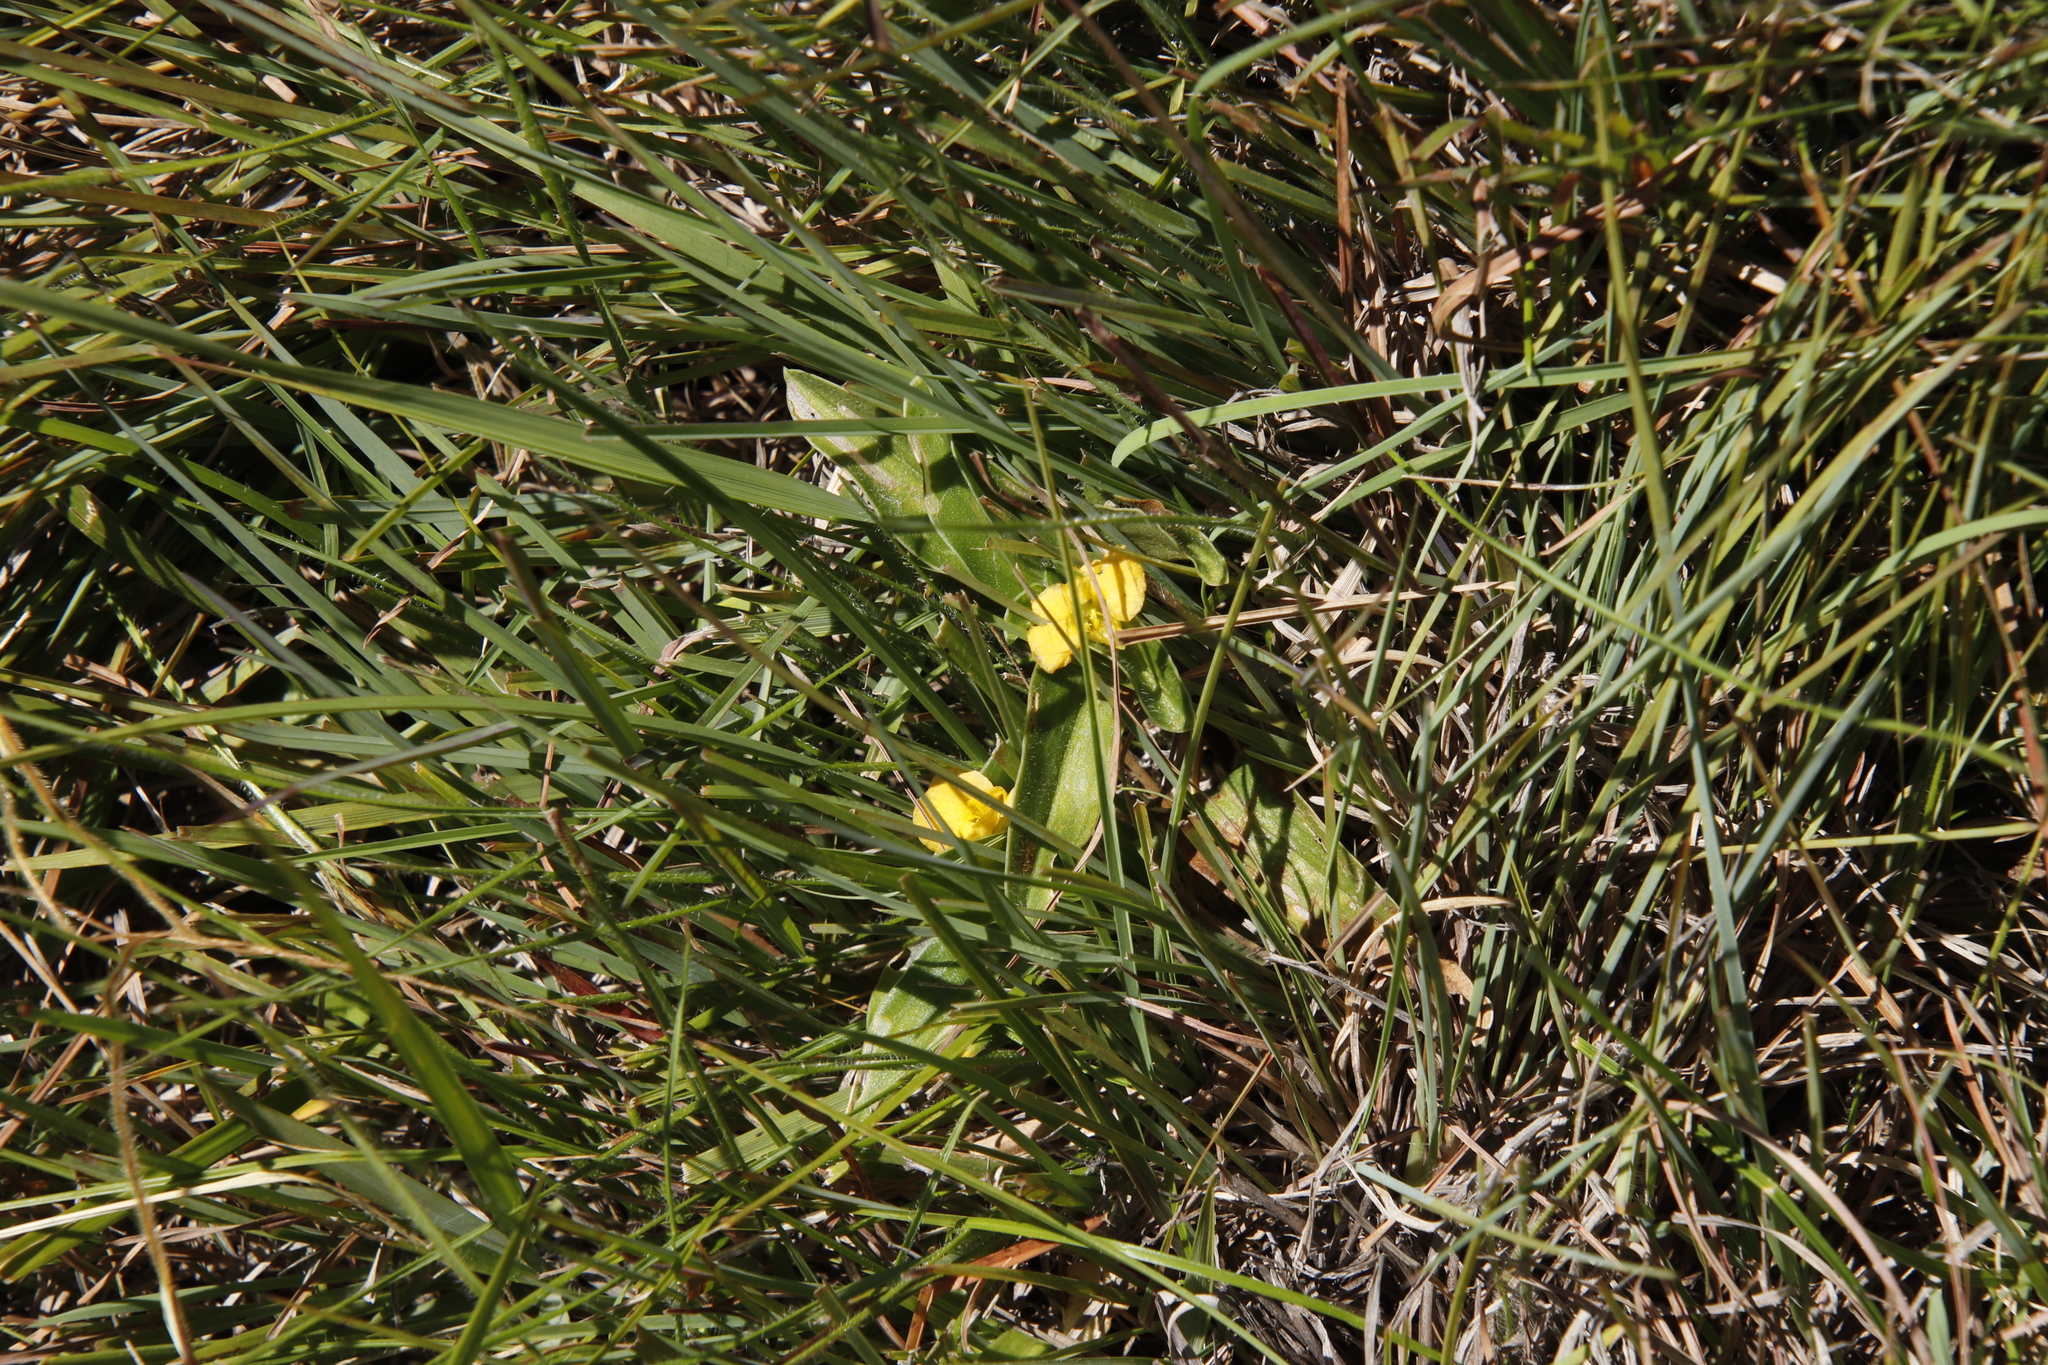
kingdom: Plantae
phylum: Tracheophyta
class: Liliopsida
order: Commelinales
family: Commelinaceae
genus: Commelina
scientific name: Commelina africana
